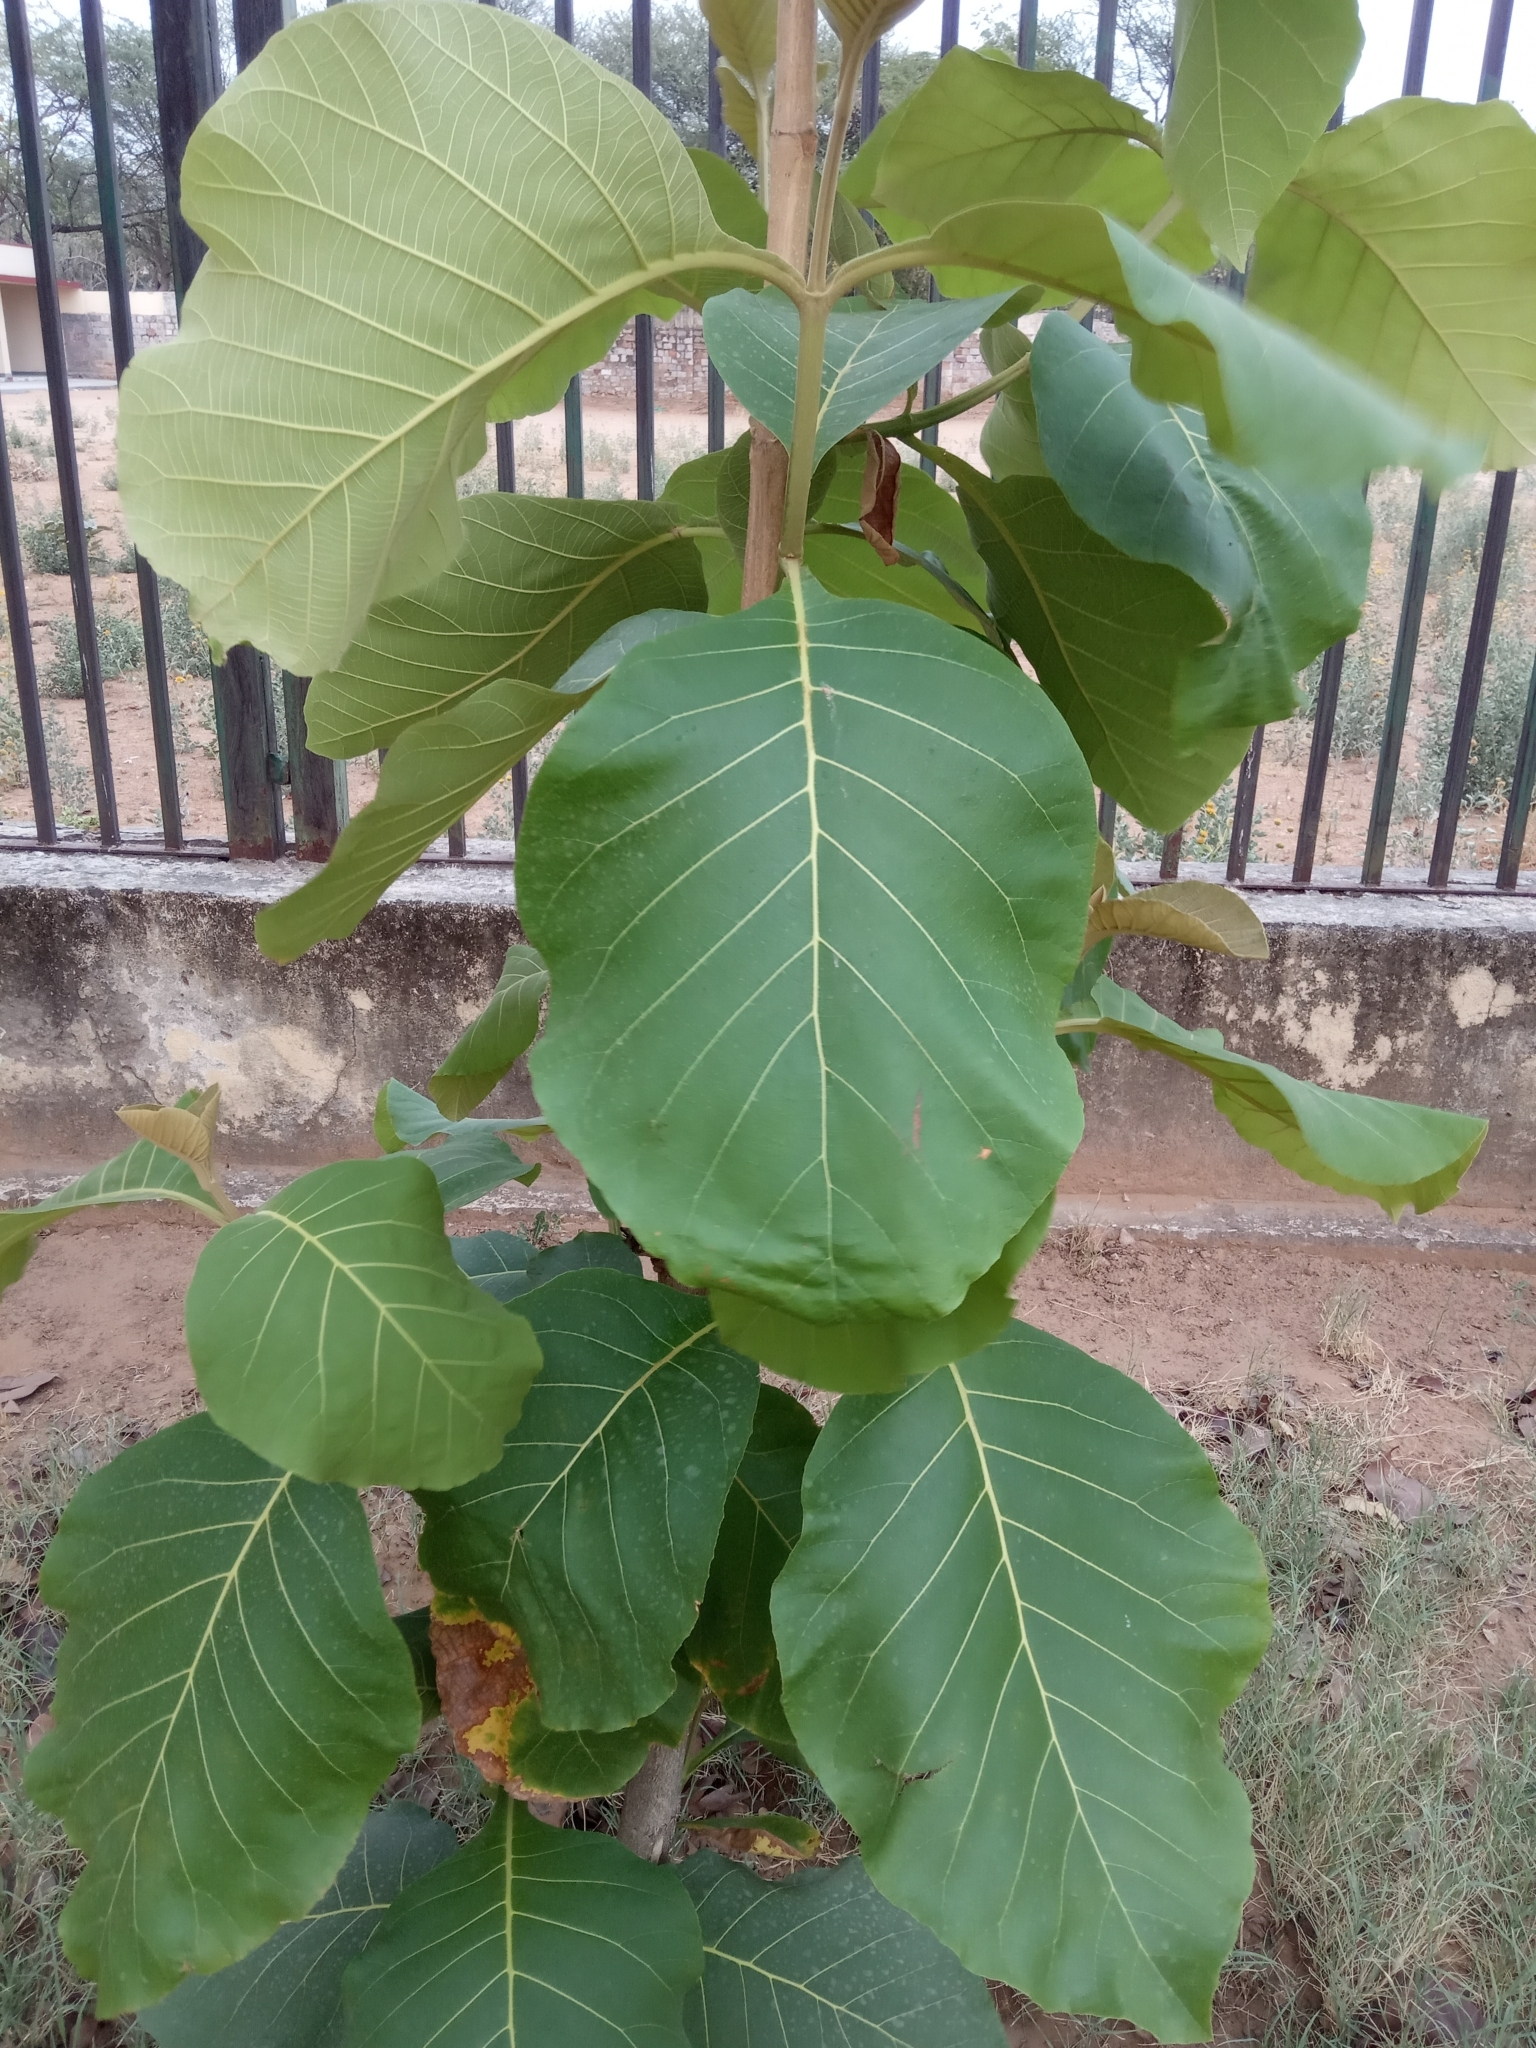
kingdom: Plantae
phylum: Tracheophyta
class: Magnoliopsida
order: Lamiales
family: Lamiaceae
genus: Tectona
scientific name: Tectona grandis
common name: Teak
